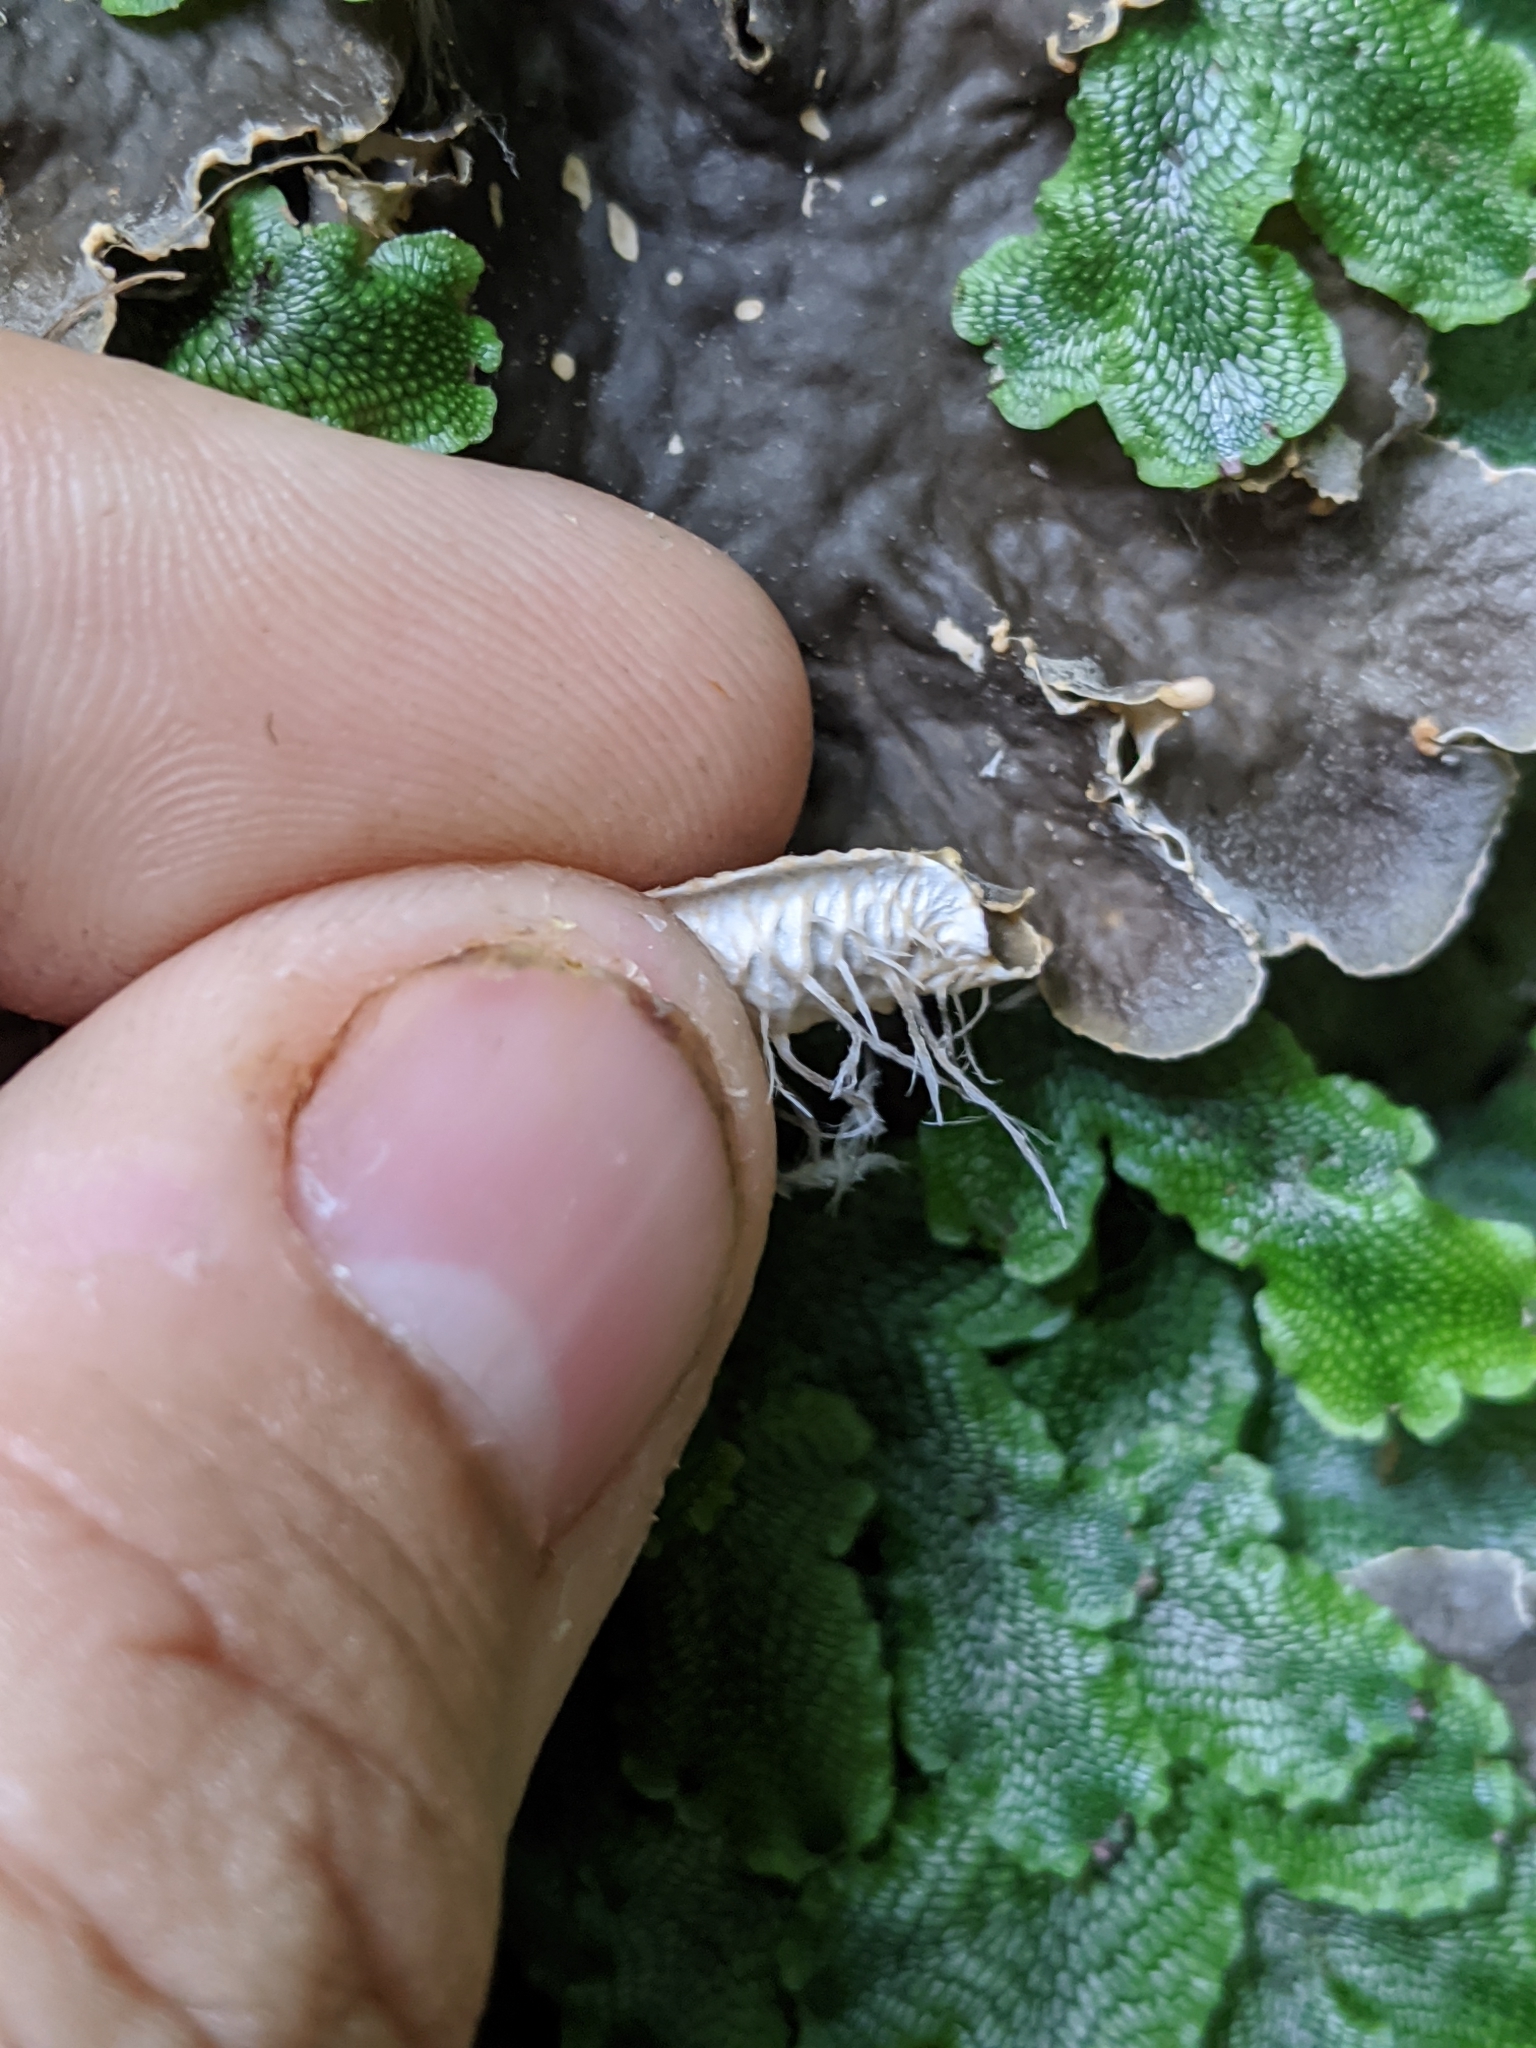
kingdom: Fungi
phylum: Ascomycota
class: Lecanoromycetes
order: Peltigerales
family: Peltigeraceae
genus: Peltigera
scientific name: Peltigera praetextata
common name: Scaly dog-lichen
